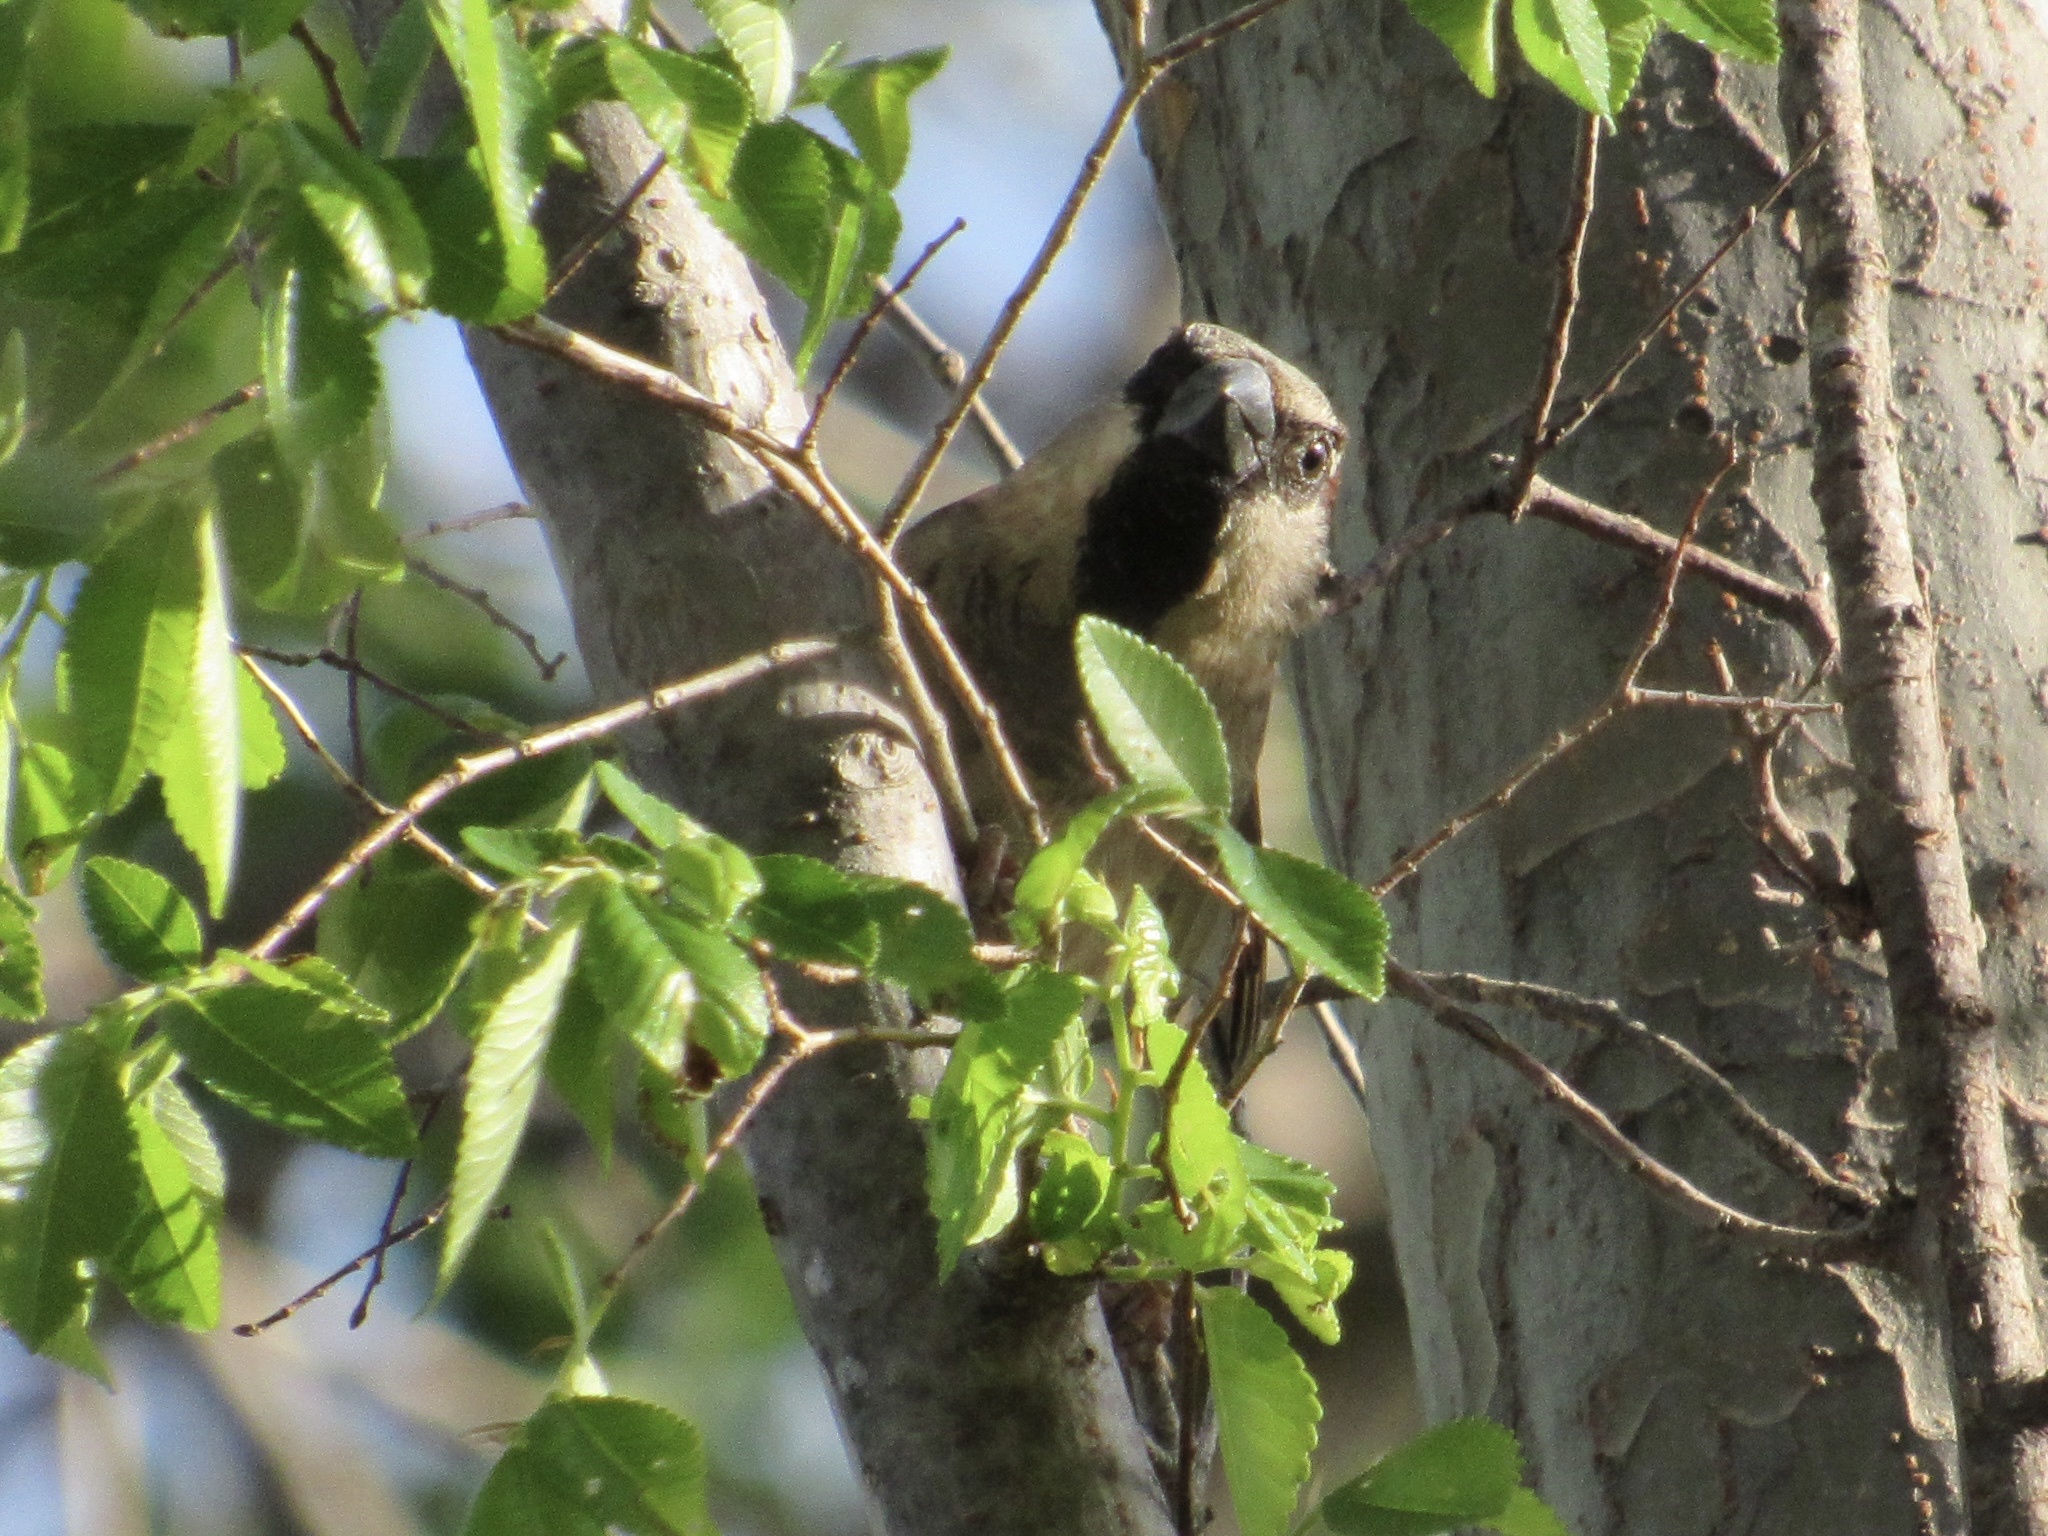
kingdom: Animalia
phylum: Chordata
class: Aves
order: Passeriformes
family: Passeridae
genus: Passer
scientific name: Passer domesticus
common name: House sparrow
